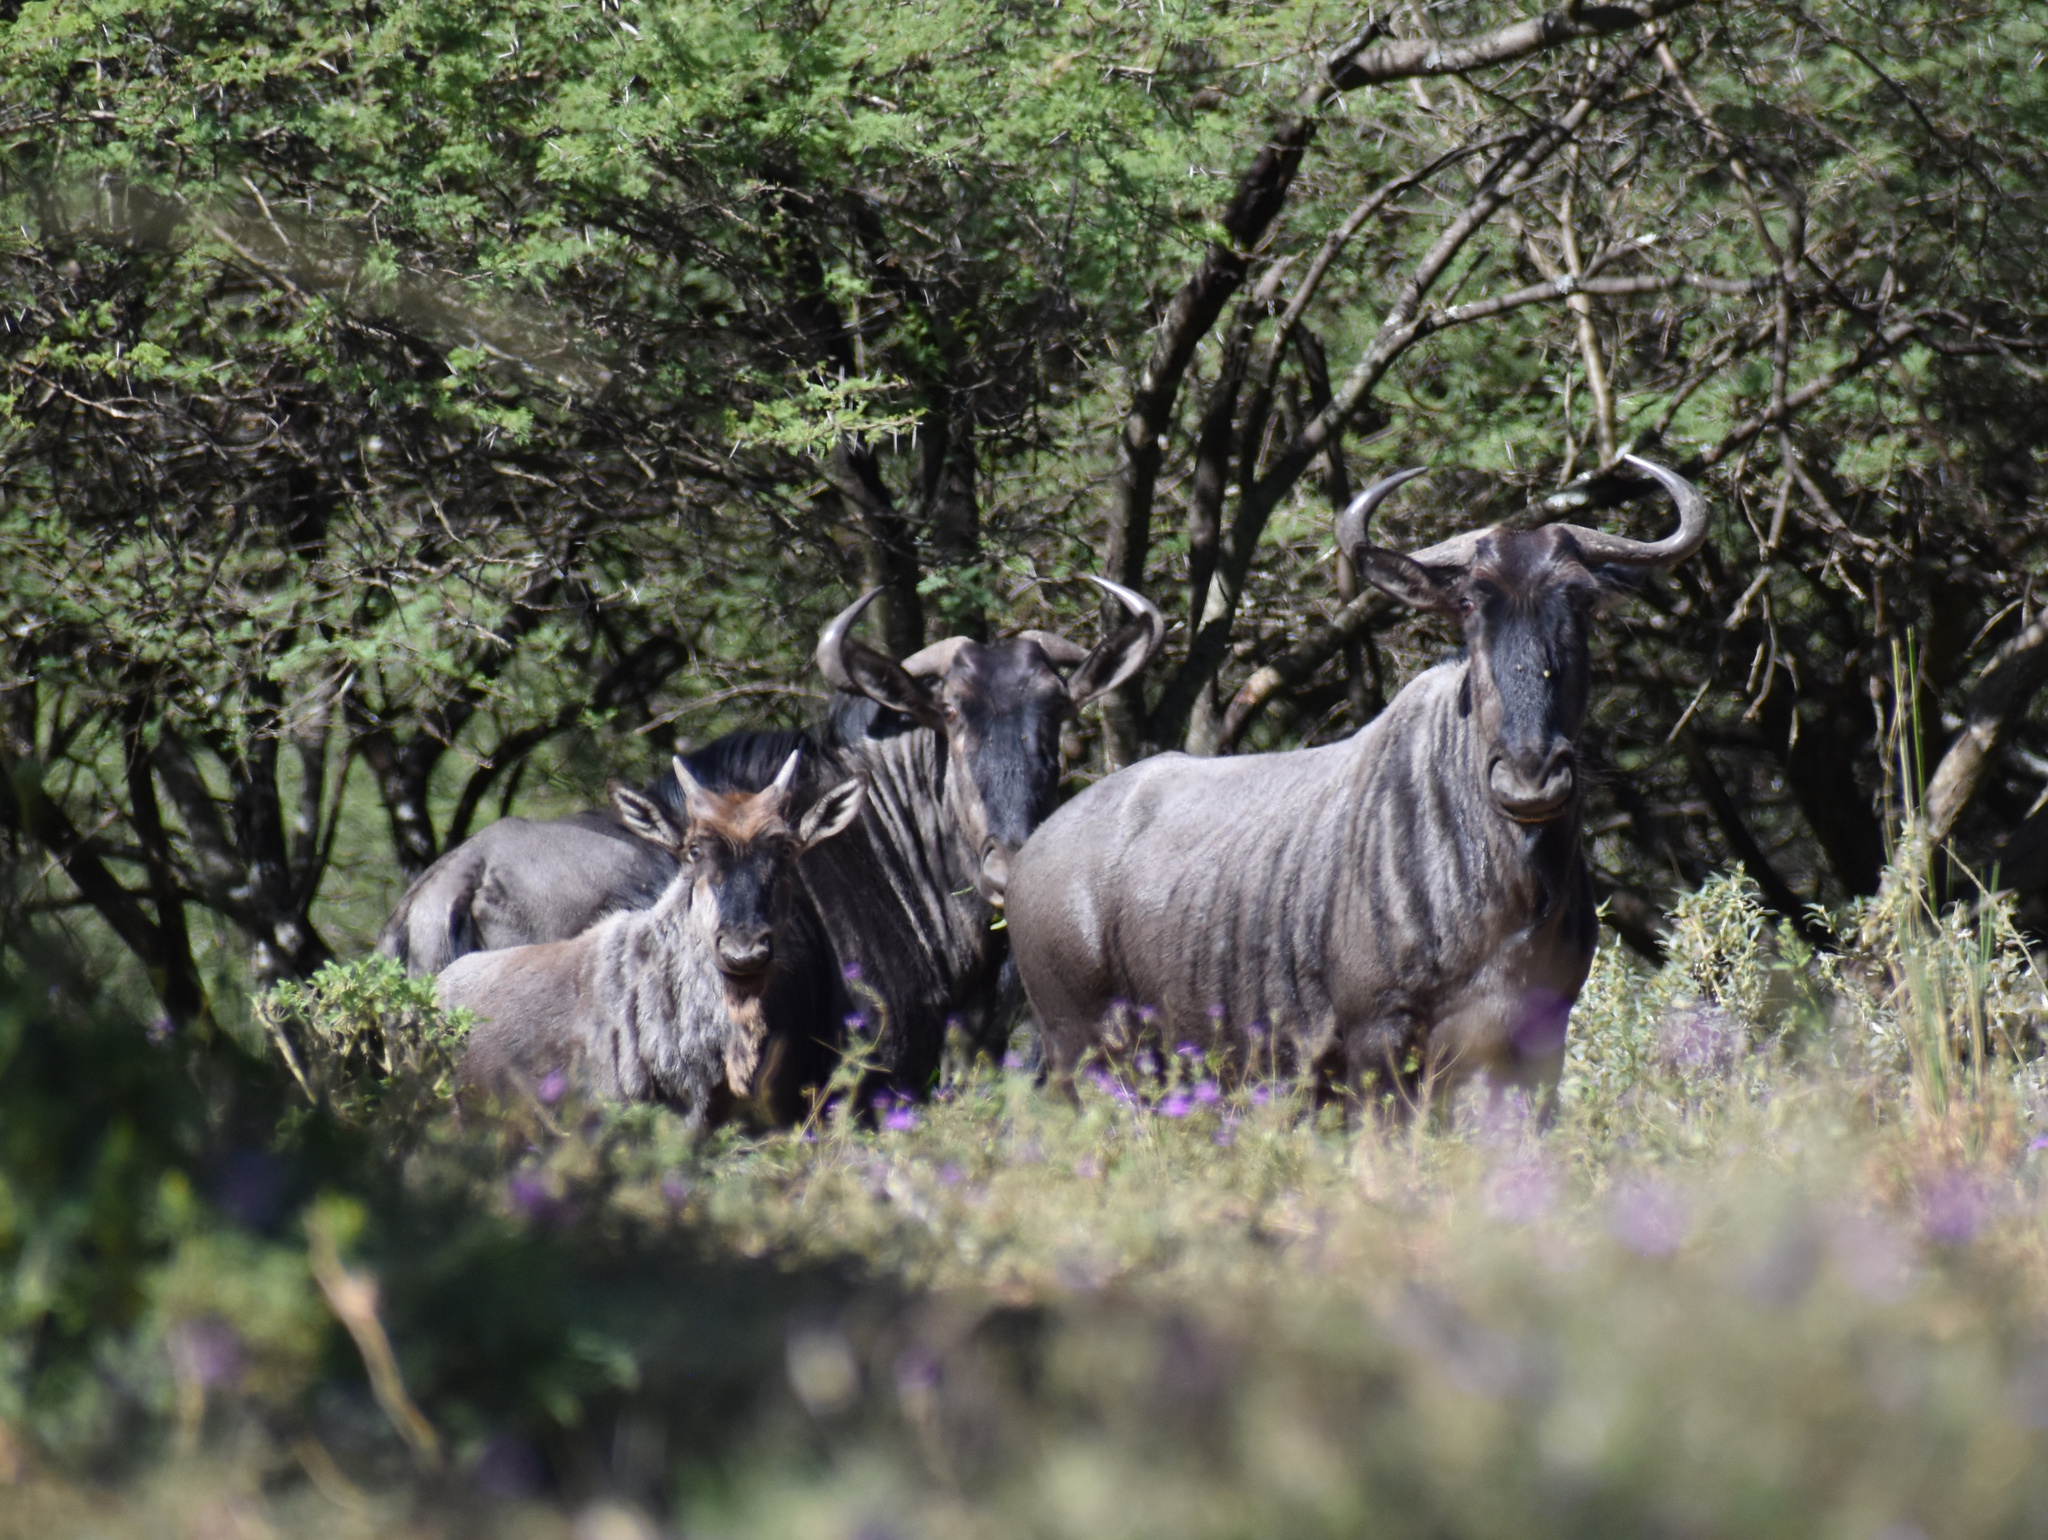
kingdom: Animalia
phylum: Chordata
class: Mammalia
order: Artiodactyla
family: Bovidae
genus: Connochaetes
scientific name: Connochaetes taurinus
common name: Blue wildebeest
